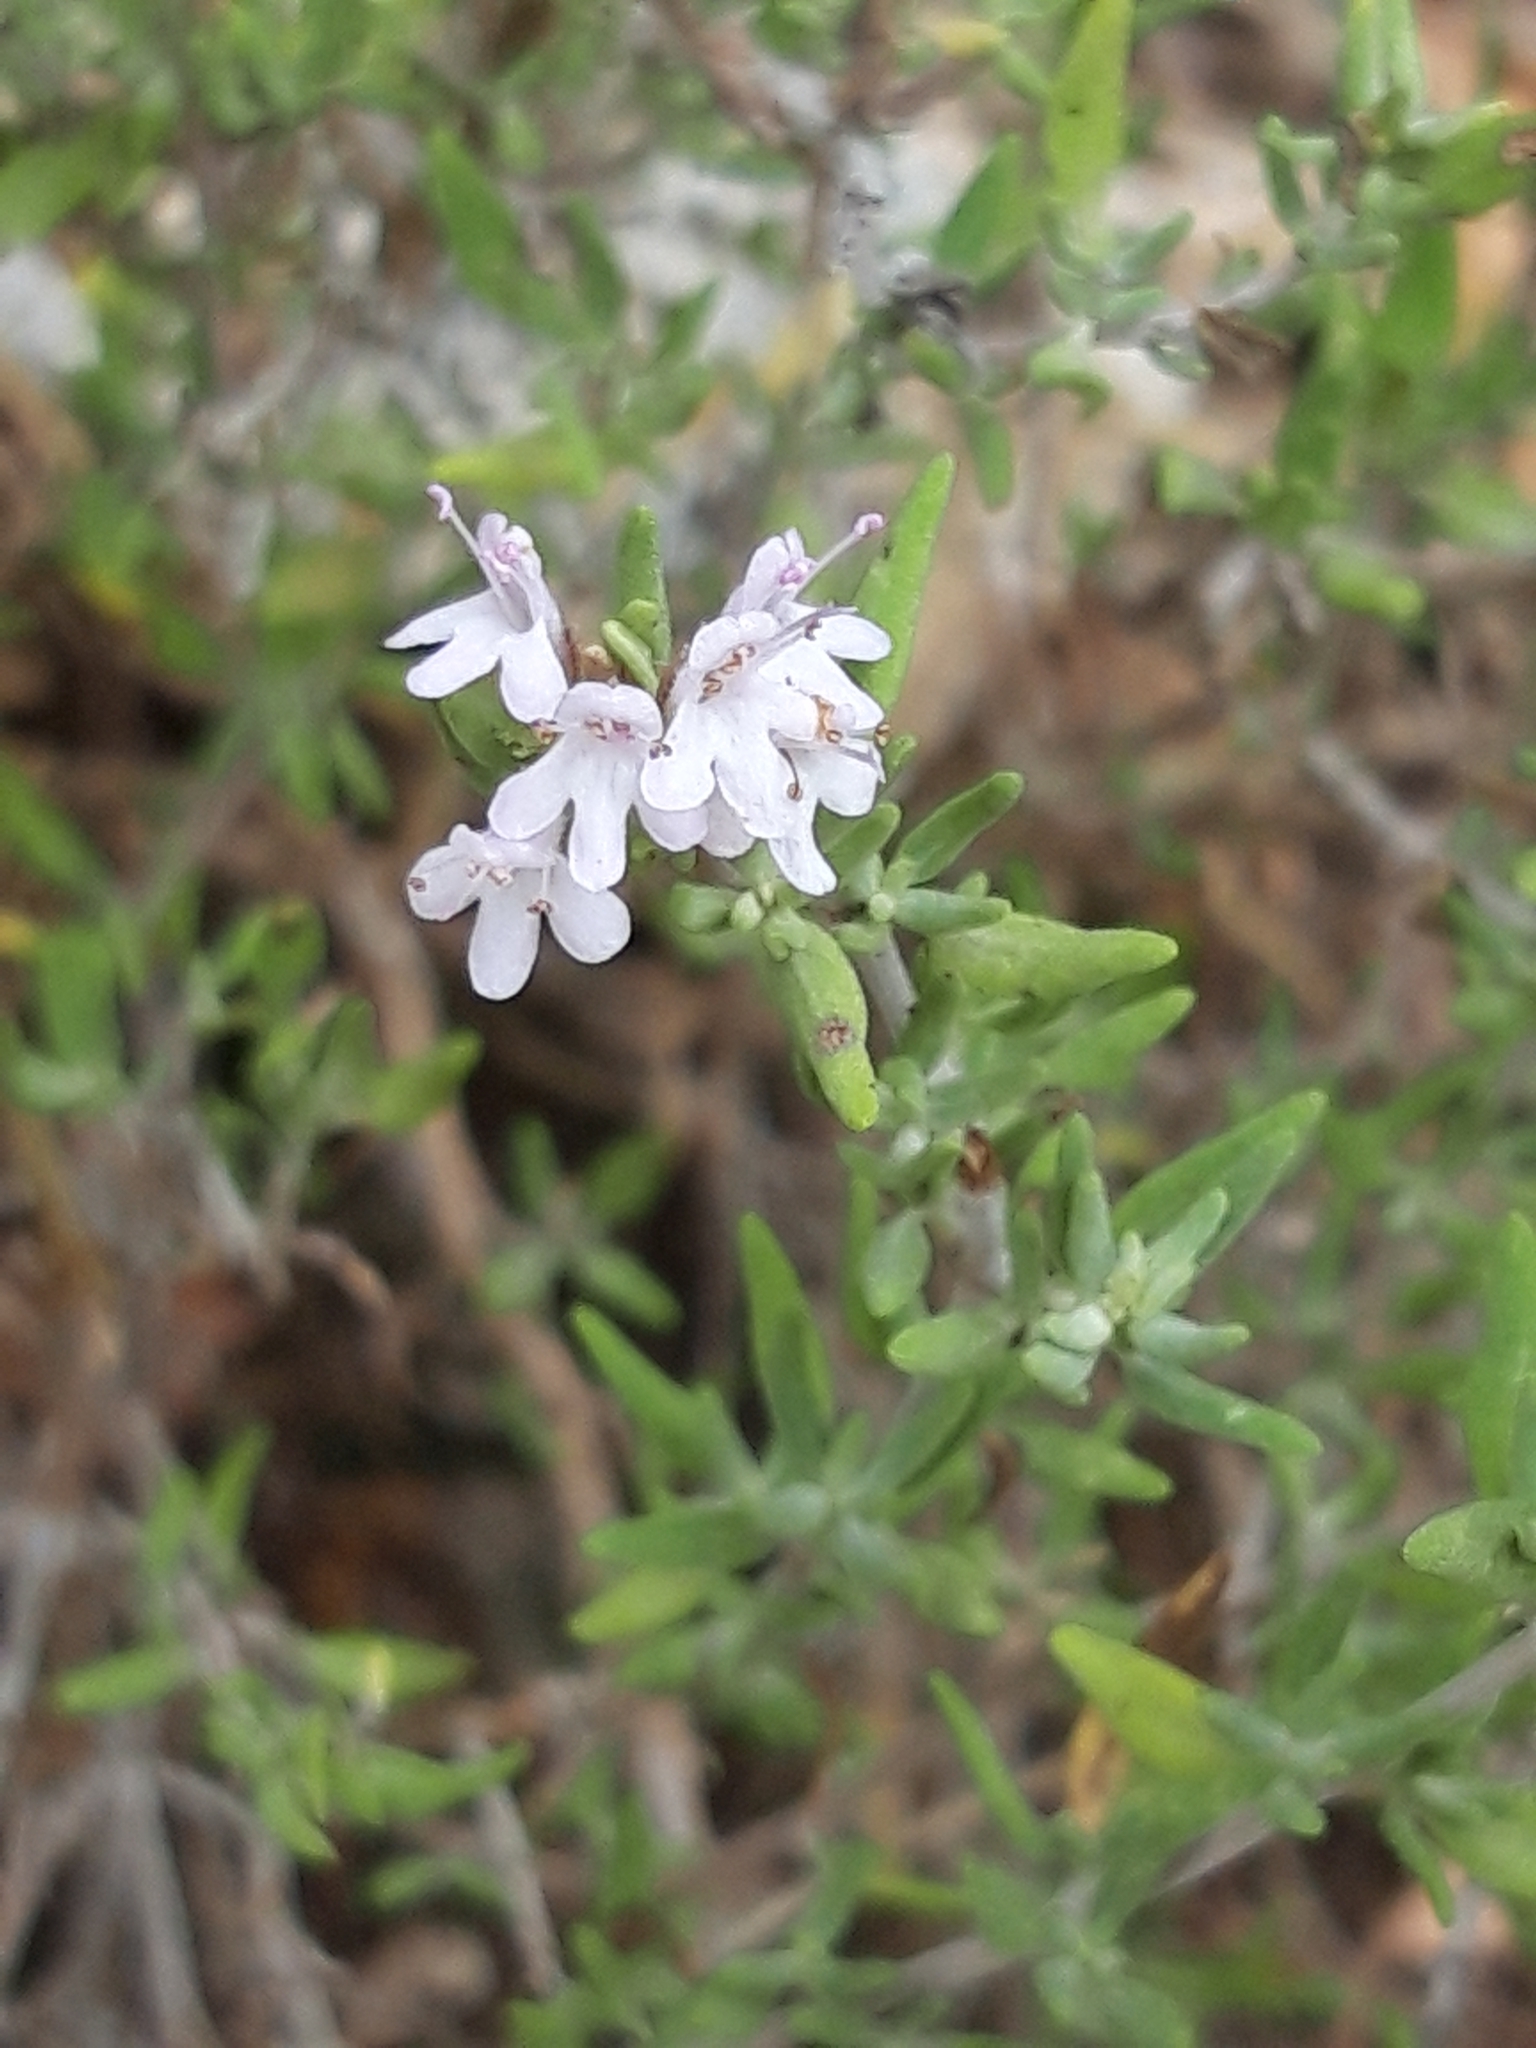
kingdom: Plantae
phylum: Tracheophyta
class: Magnoliopsida
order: Lamiales
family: Lamiaceae
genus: Thymus
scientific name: Thymus vulgaris
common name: Garden thyme
